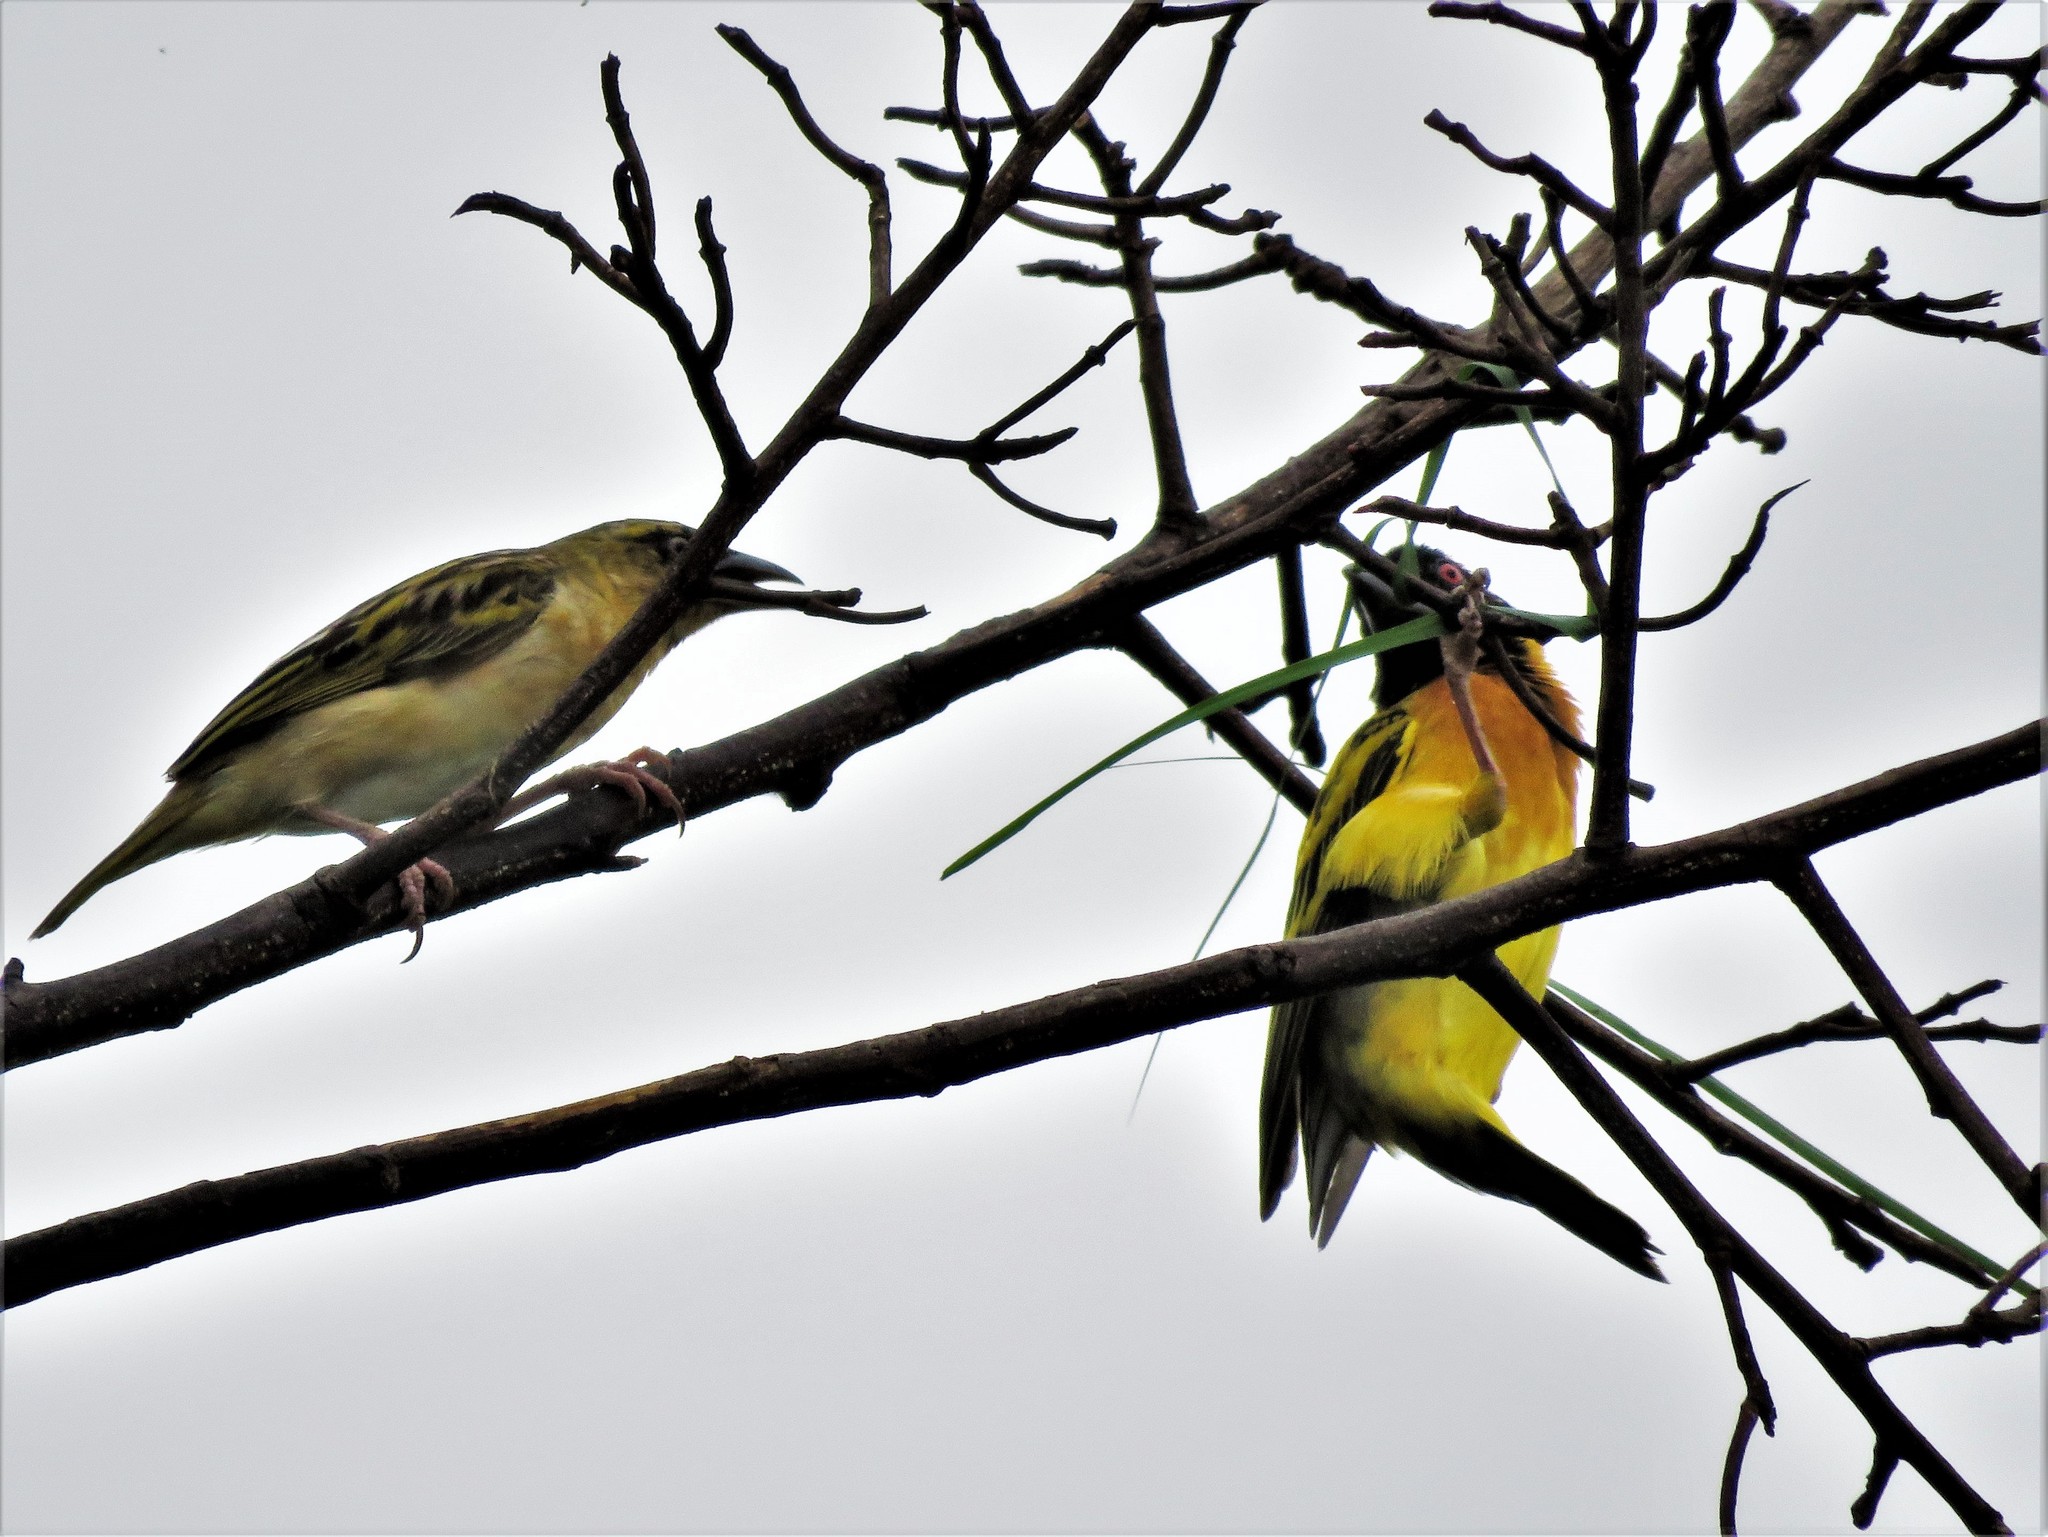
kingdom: Animalia
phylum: Chordata
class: Aves
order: Passeriformes
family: Ploceidae
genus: Ploceus
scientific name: Ploceus cucullatus
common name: Village weaver
